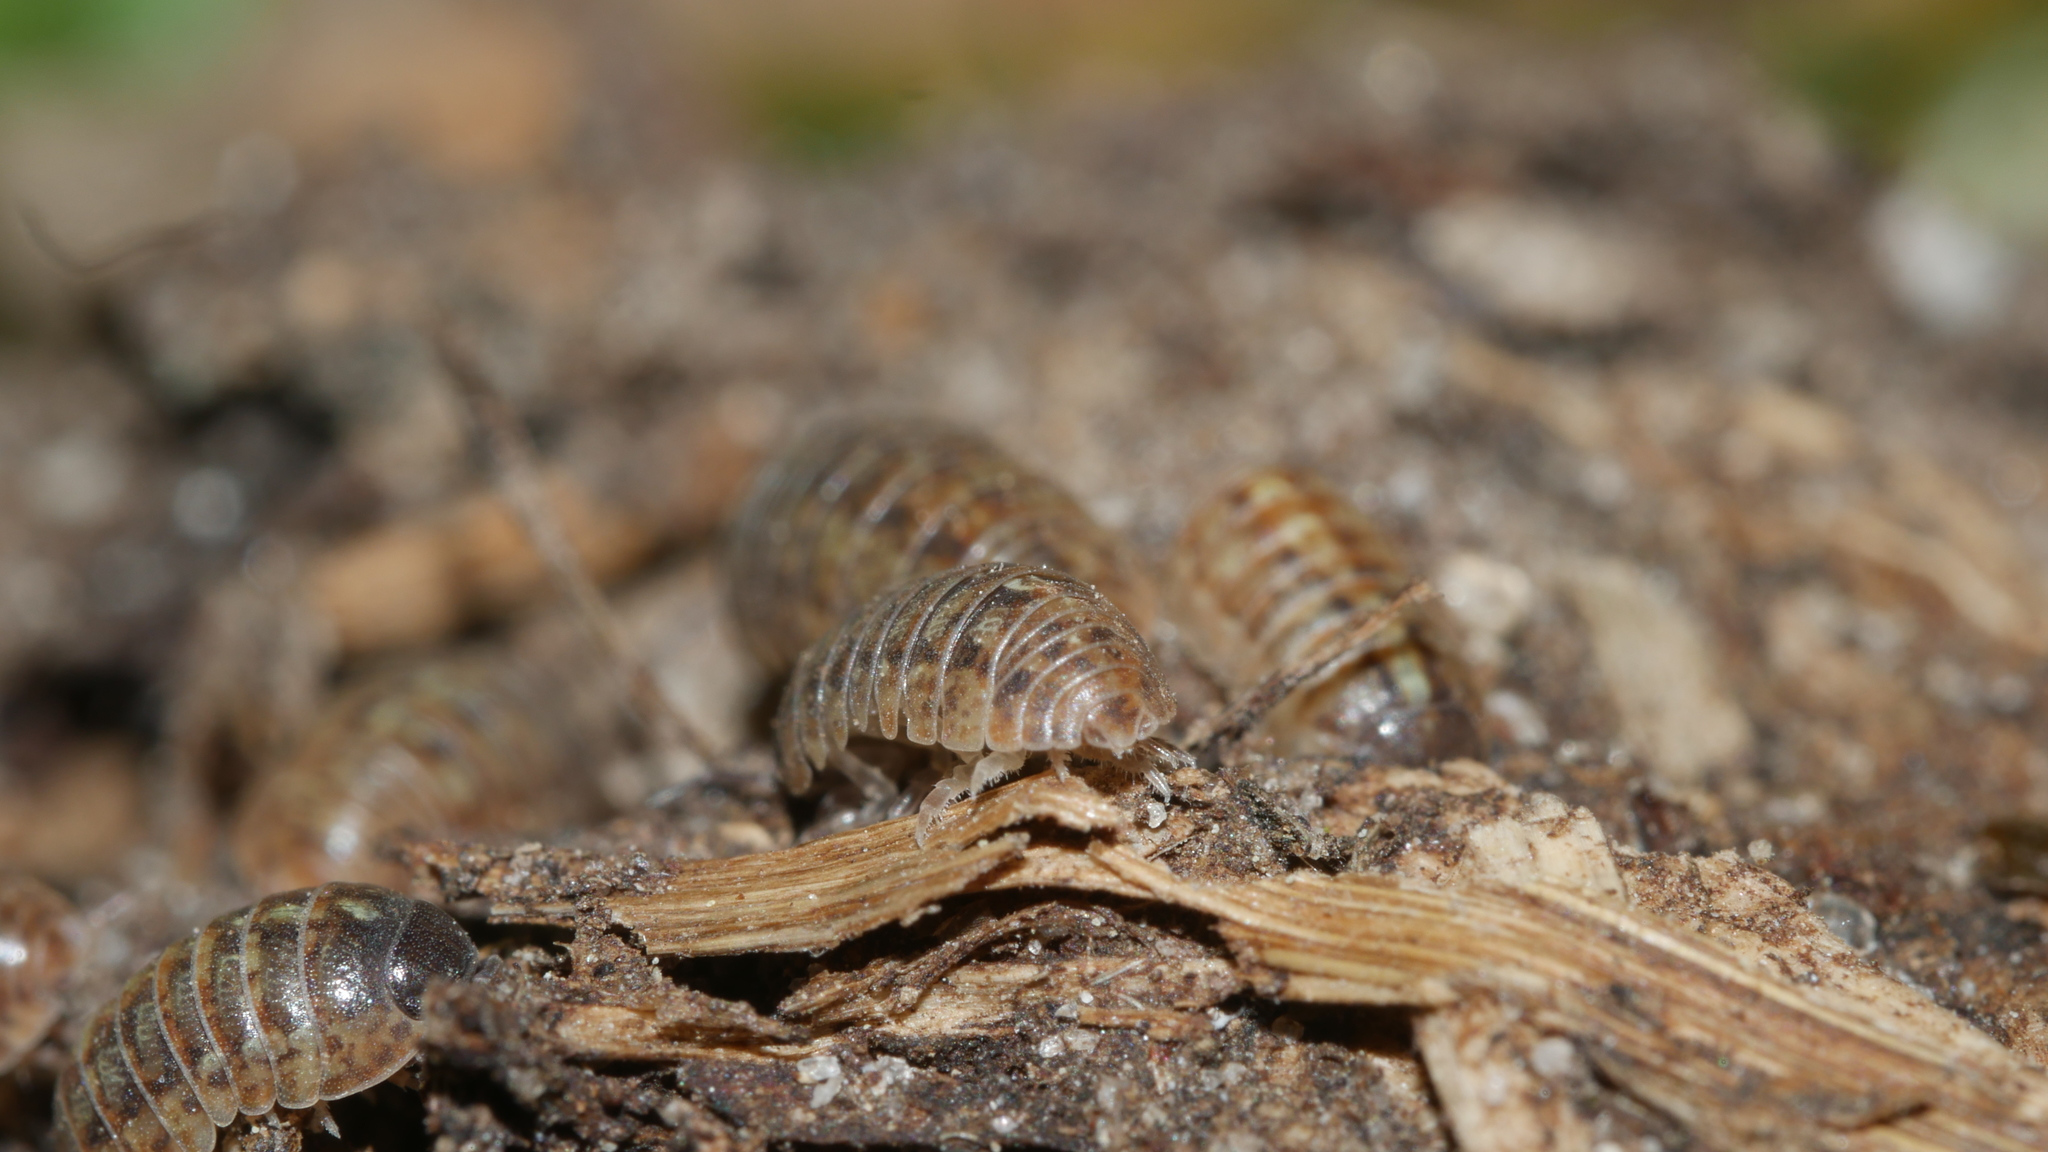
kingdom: Animalia
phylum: Arthropoda
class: Malacostraca
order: Isopoda
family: Armadillidiidae
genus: Armadillidium
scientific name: Armadillidium vulgare
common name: Common pill woodlouse
